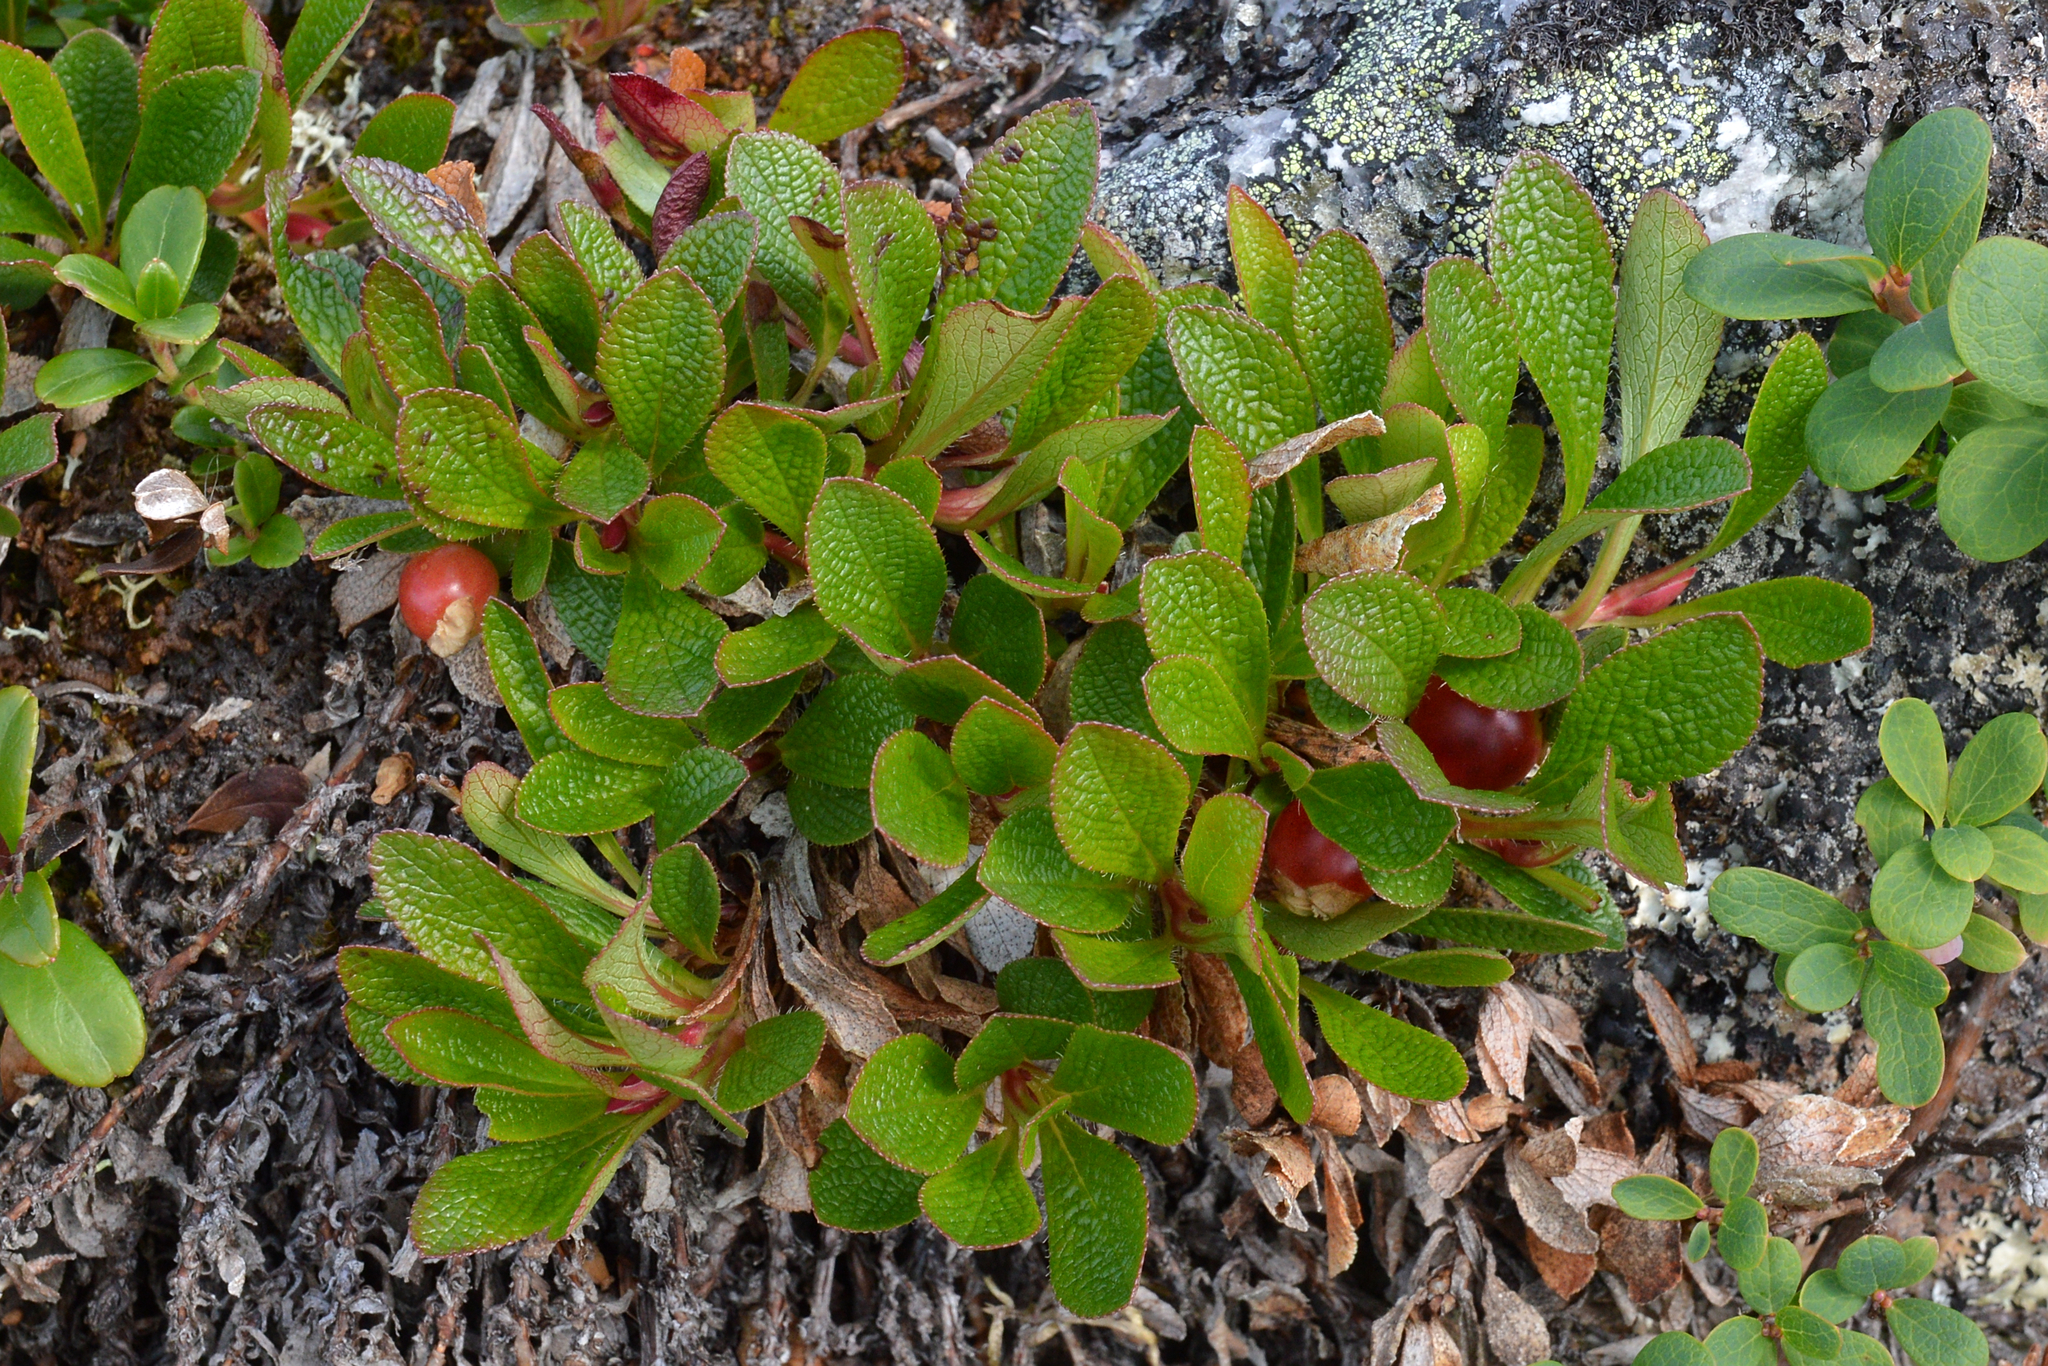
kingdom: Plantae
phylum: Tracheophyta
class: Magnoliopsida
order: Ericales
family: Ericaceae
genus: Arctostaphylos
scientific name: Arctostaphylos alpinus
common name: Alpine bearberry
